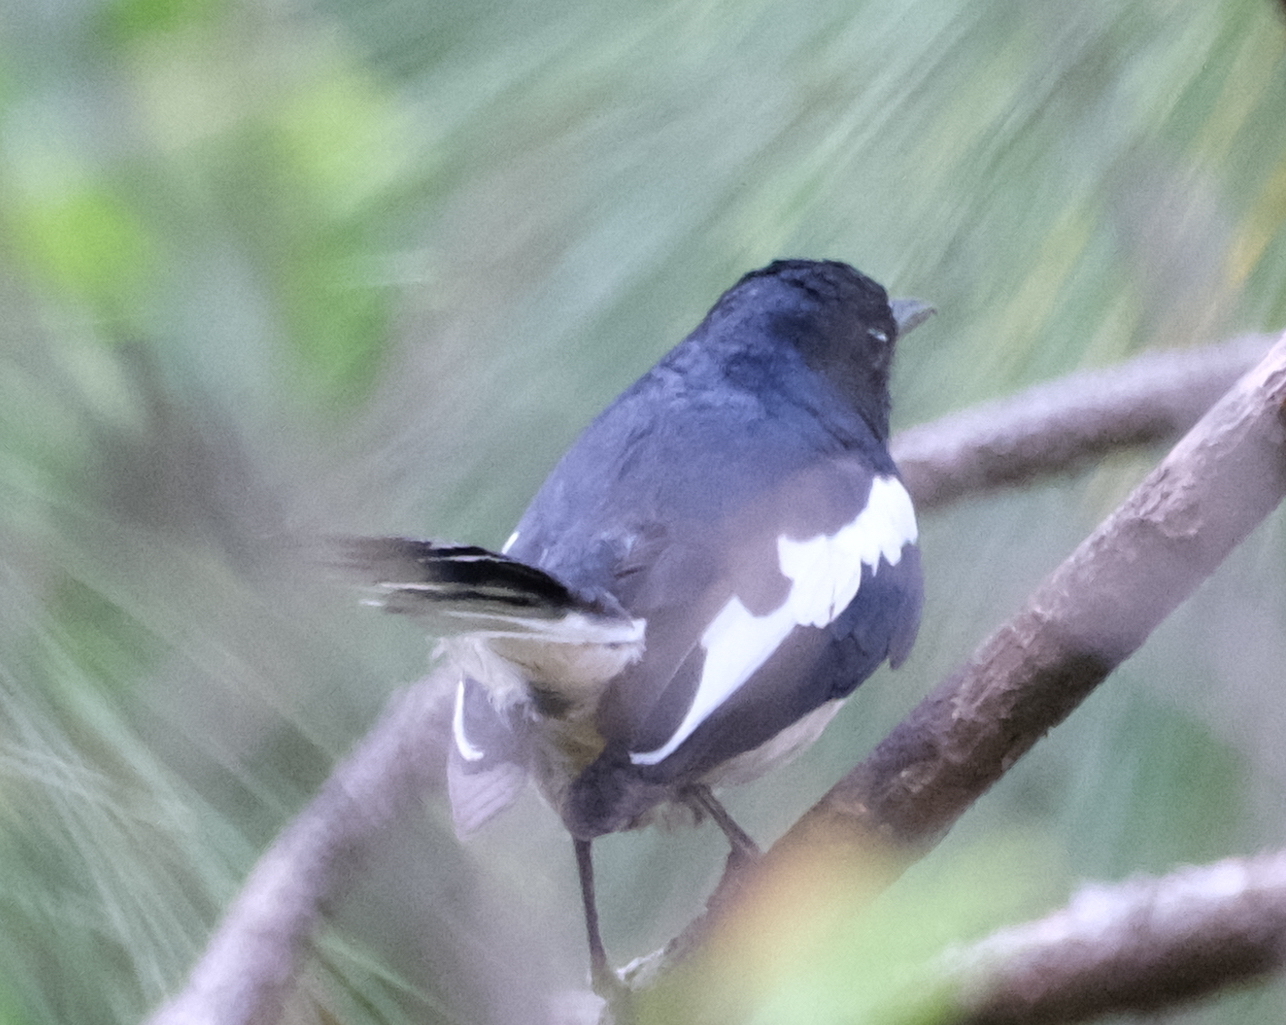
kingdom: Animalia
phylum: Chordata
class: Aves
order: Passeriformes
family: Muscicapidae
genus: Copsychus
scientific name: Copsychus saularis
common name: Oriental magpie-robin
